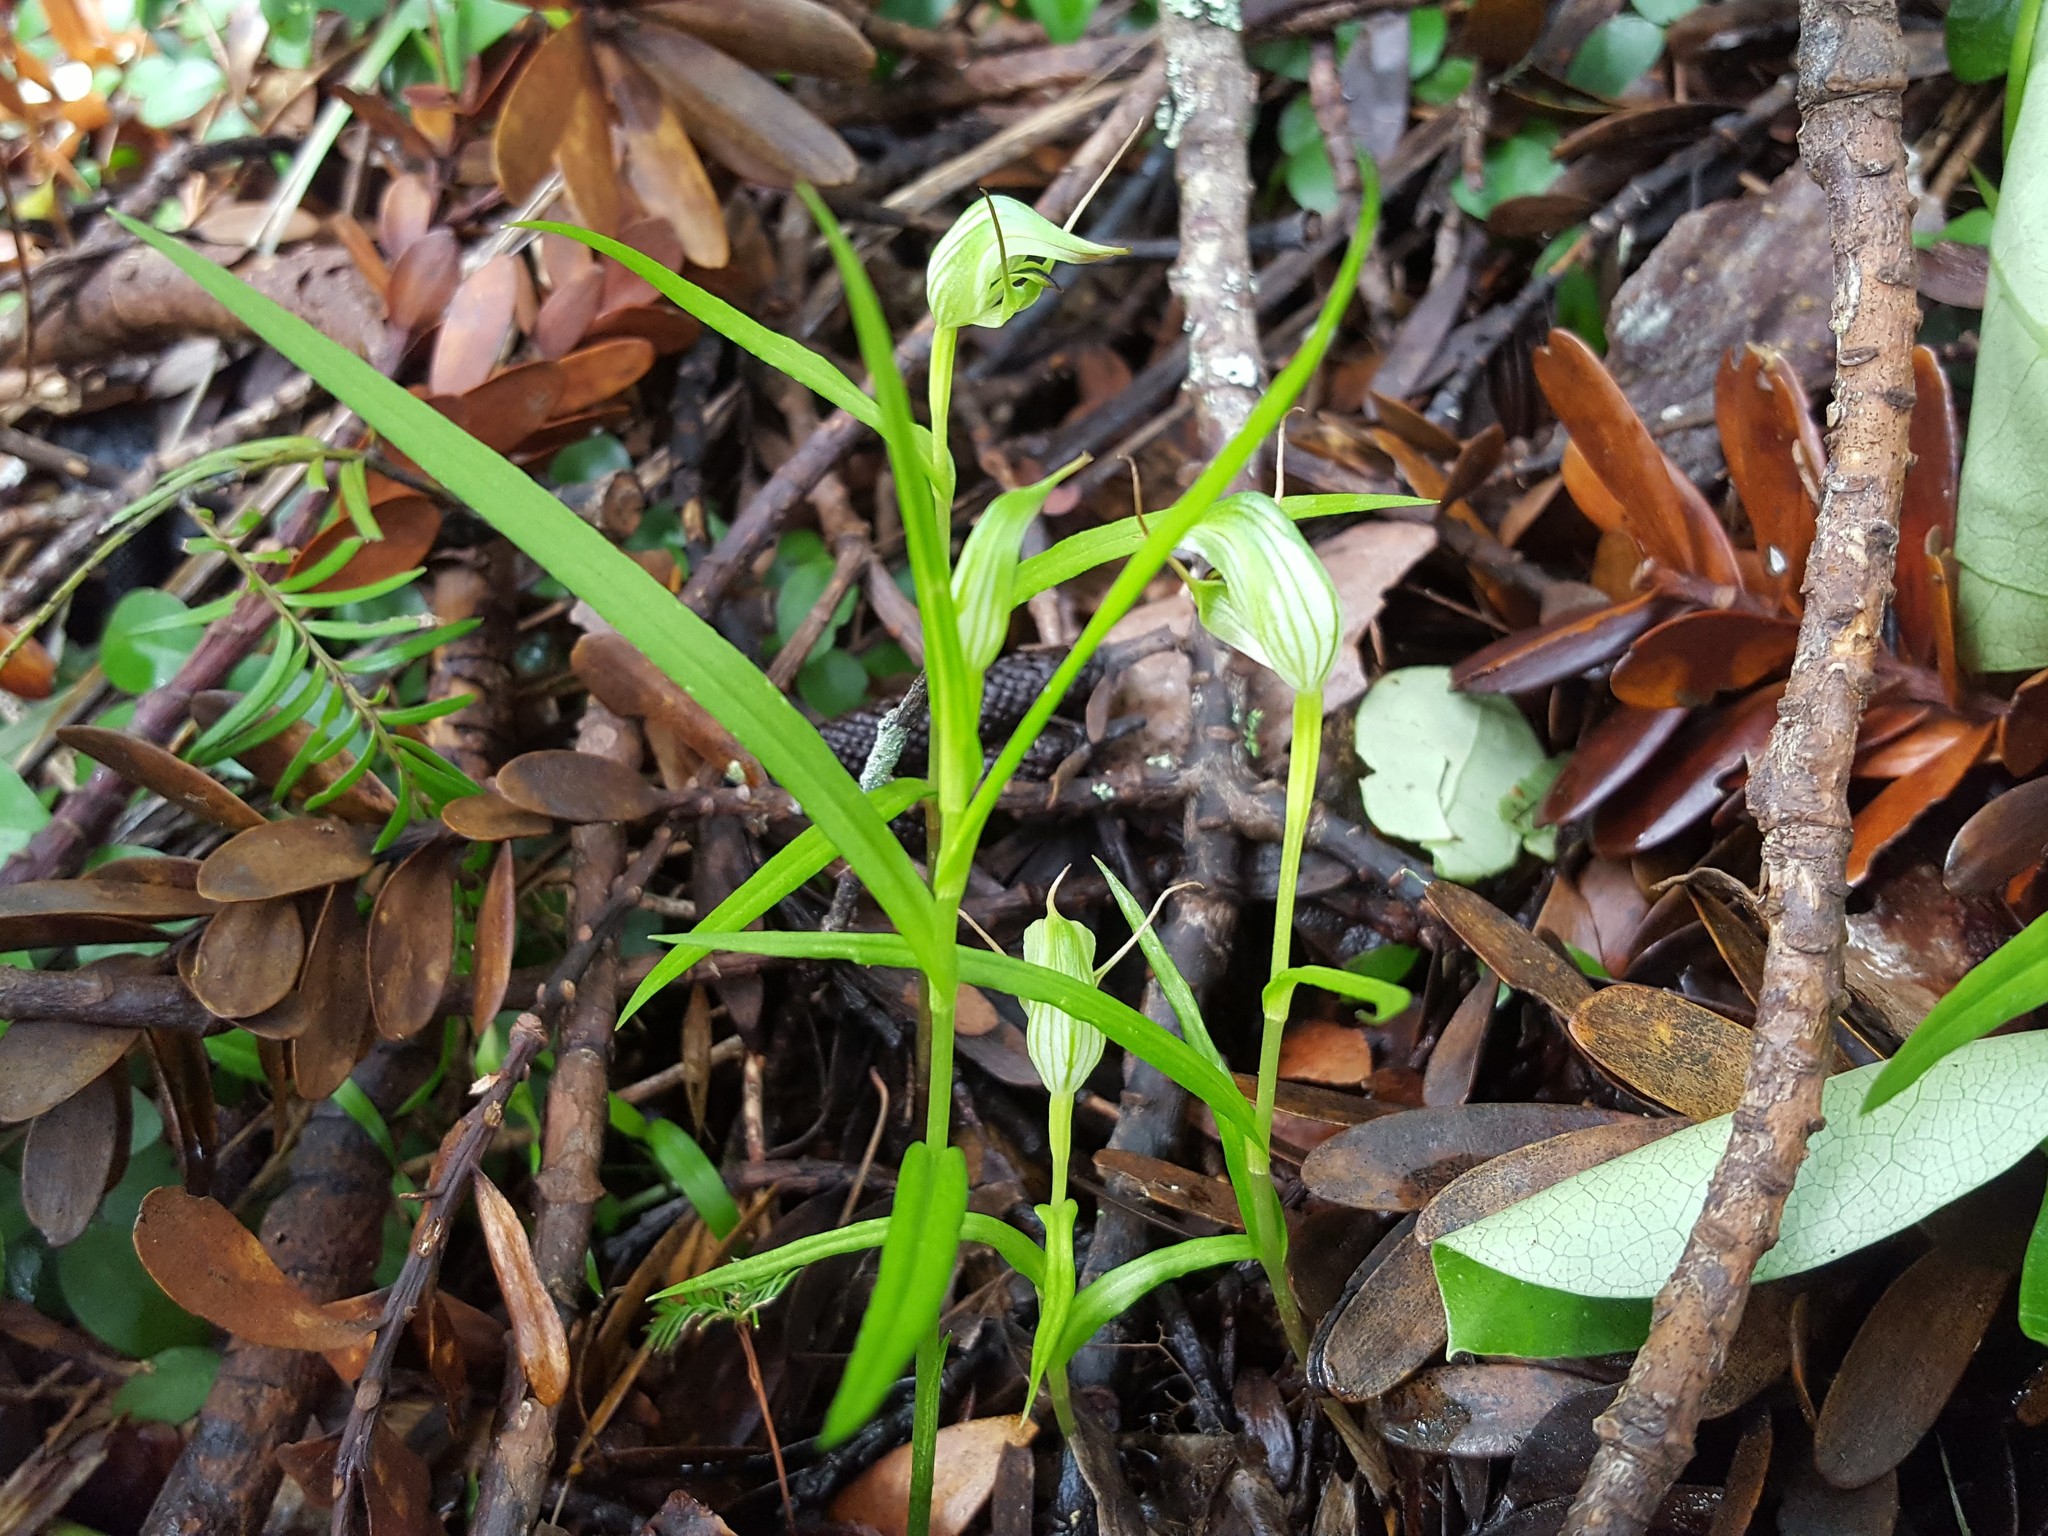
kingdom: Plantae
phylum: Tracheophyta
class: Liliopsida
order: Asparagales
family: Orchidaceae
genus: Pterostylis
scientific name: Pterostylis agathicola
